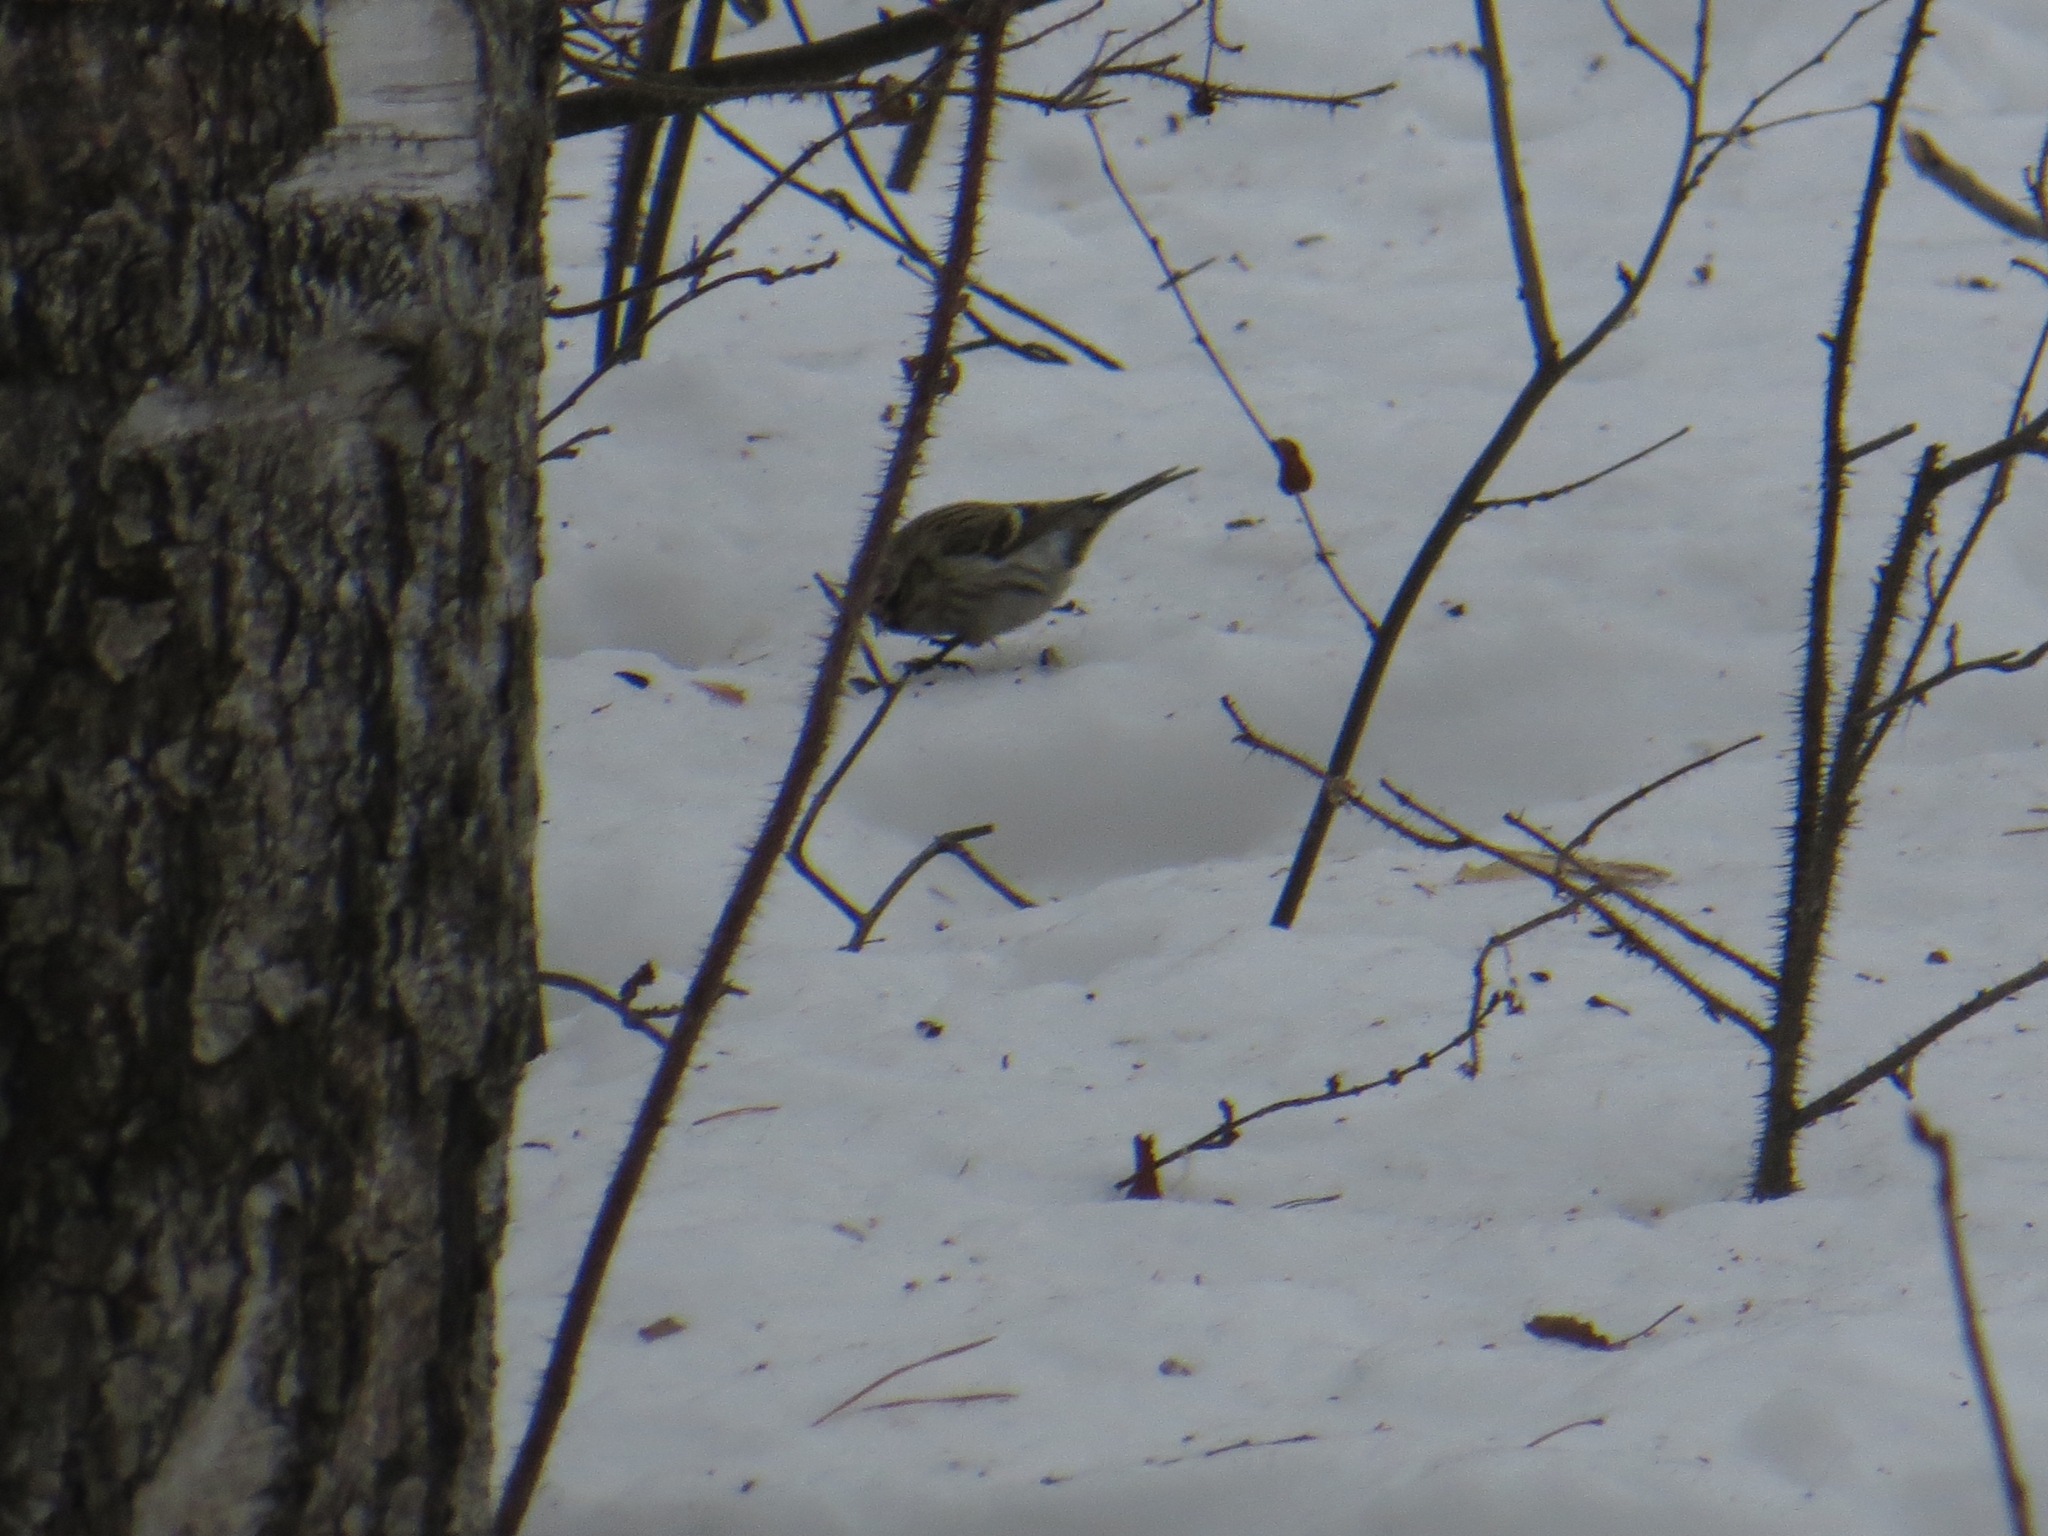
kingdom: Animalia
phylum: Chordata
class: Aves
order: Passeriformes
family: Fringillidae
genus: Acanthis
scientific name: Acanthis flammea
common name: Common redpoll
